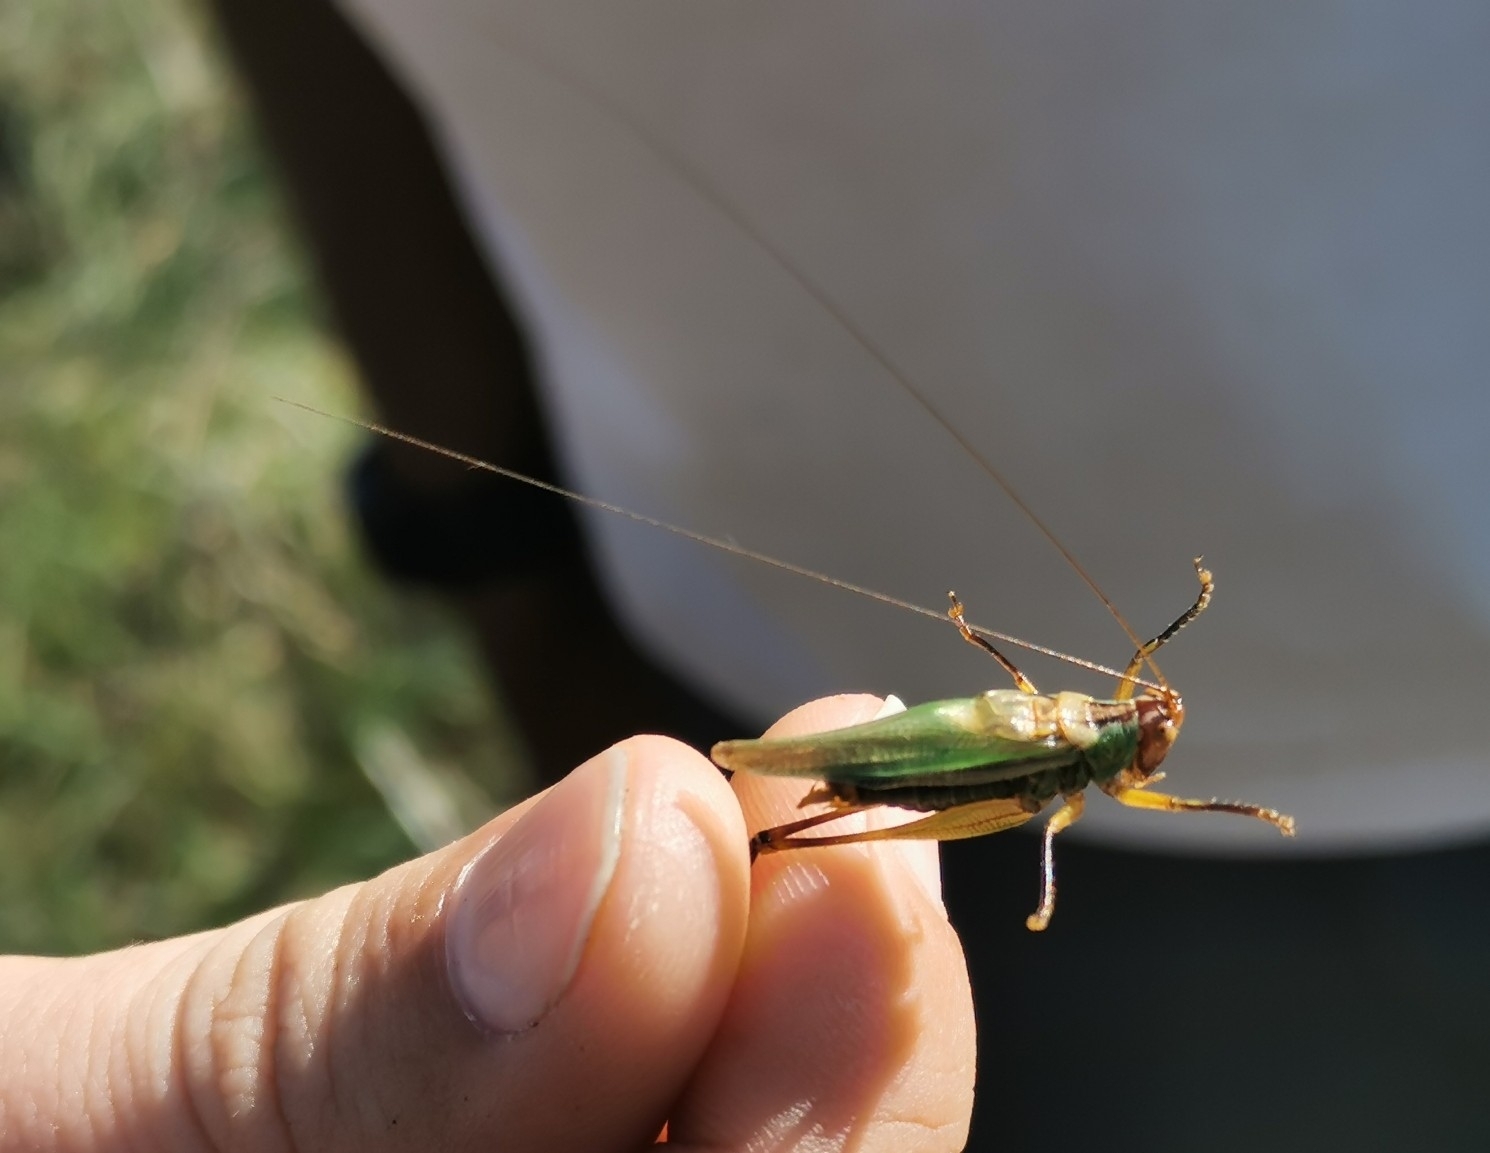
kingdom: Animalia
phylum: Arthropoda
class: Insecta
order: Orthoptera
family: Tettigoniidae
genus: Orchelimum
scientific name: Orchelimum nigripes
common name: Black-legged meadow katydid
